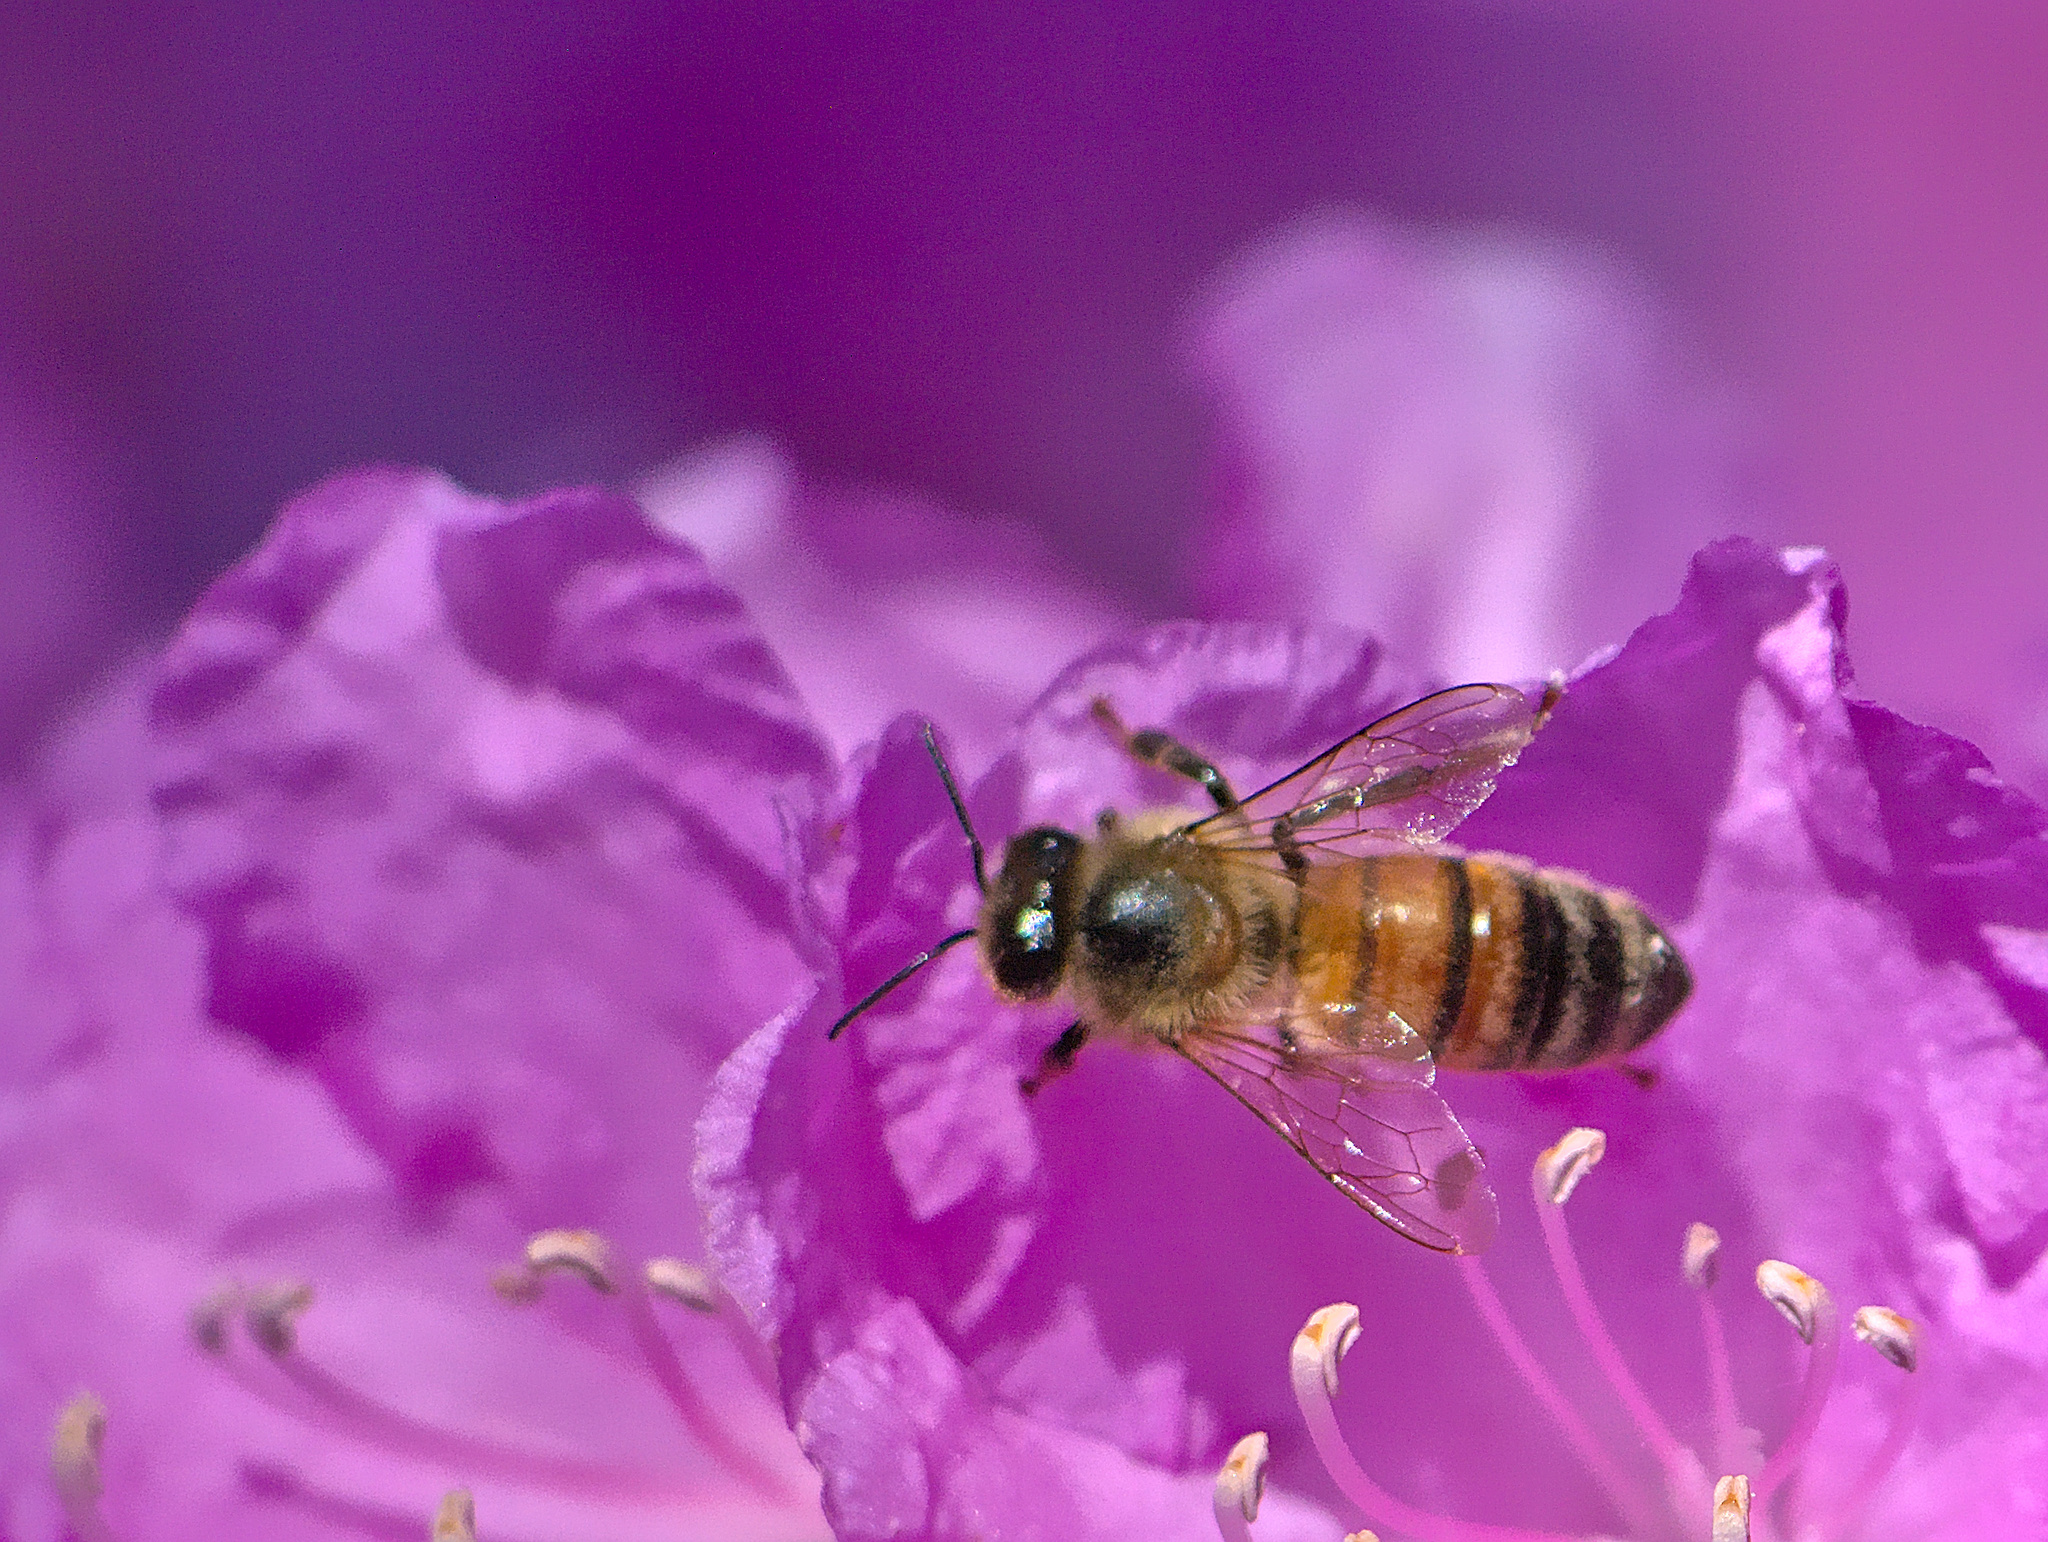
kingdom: Animalia
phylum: Arthropoda
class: Insecta
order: Hymenoptera
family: Apidae
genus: Apis
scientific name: Apis mellifera
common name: Honey bee
